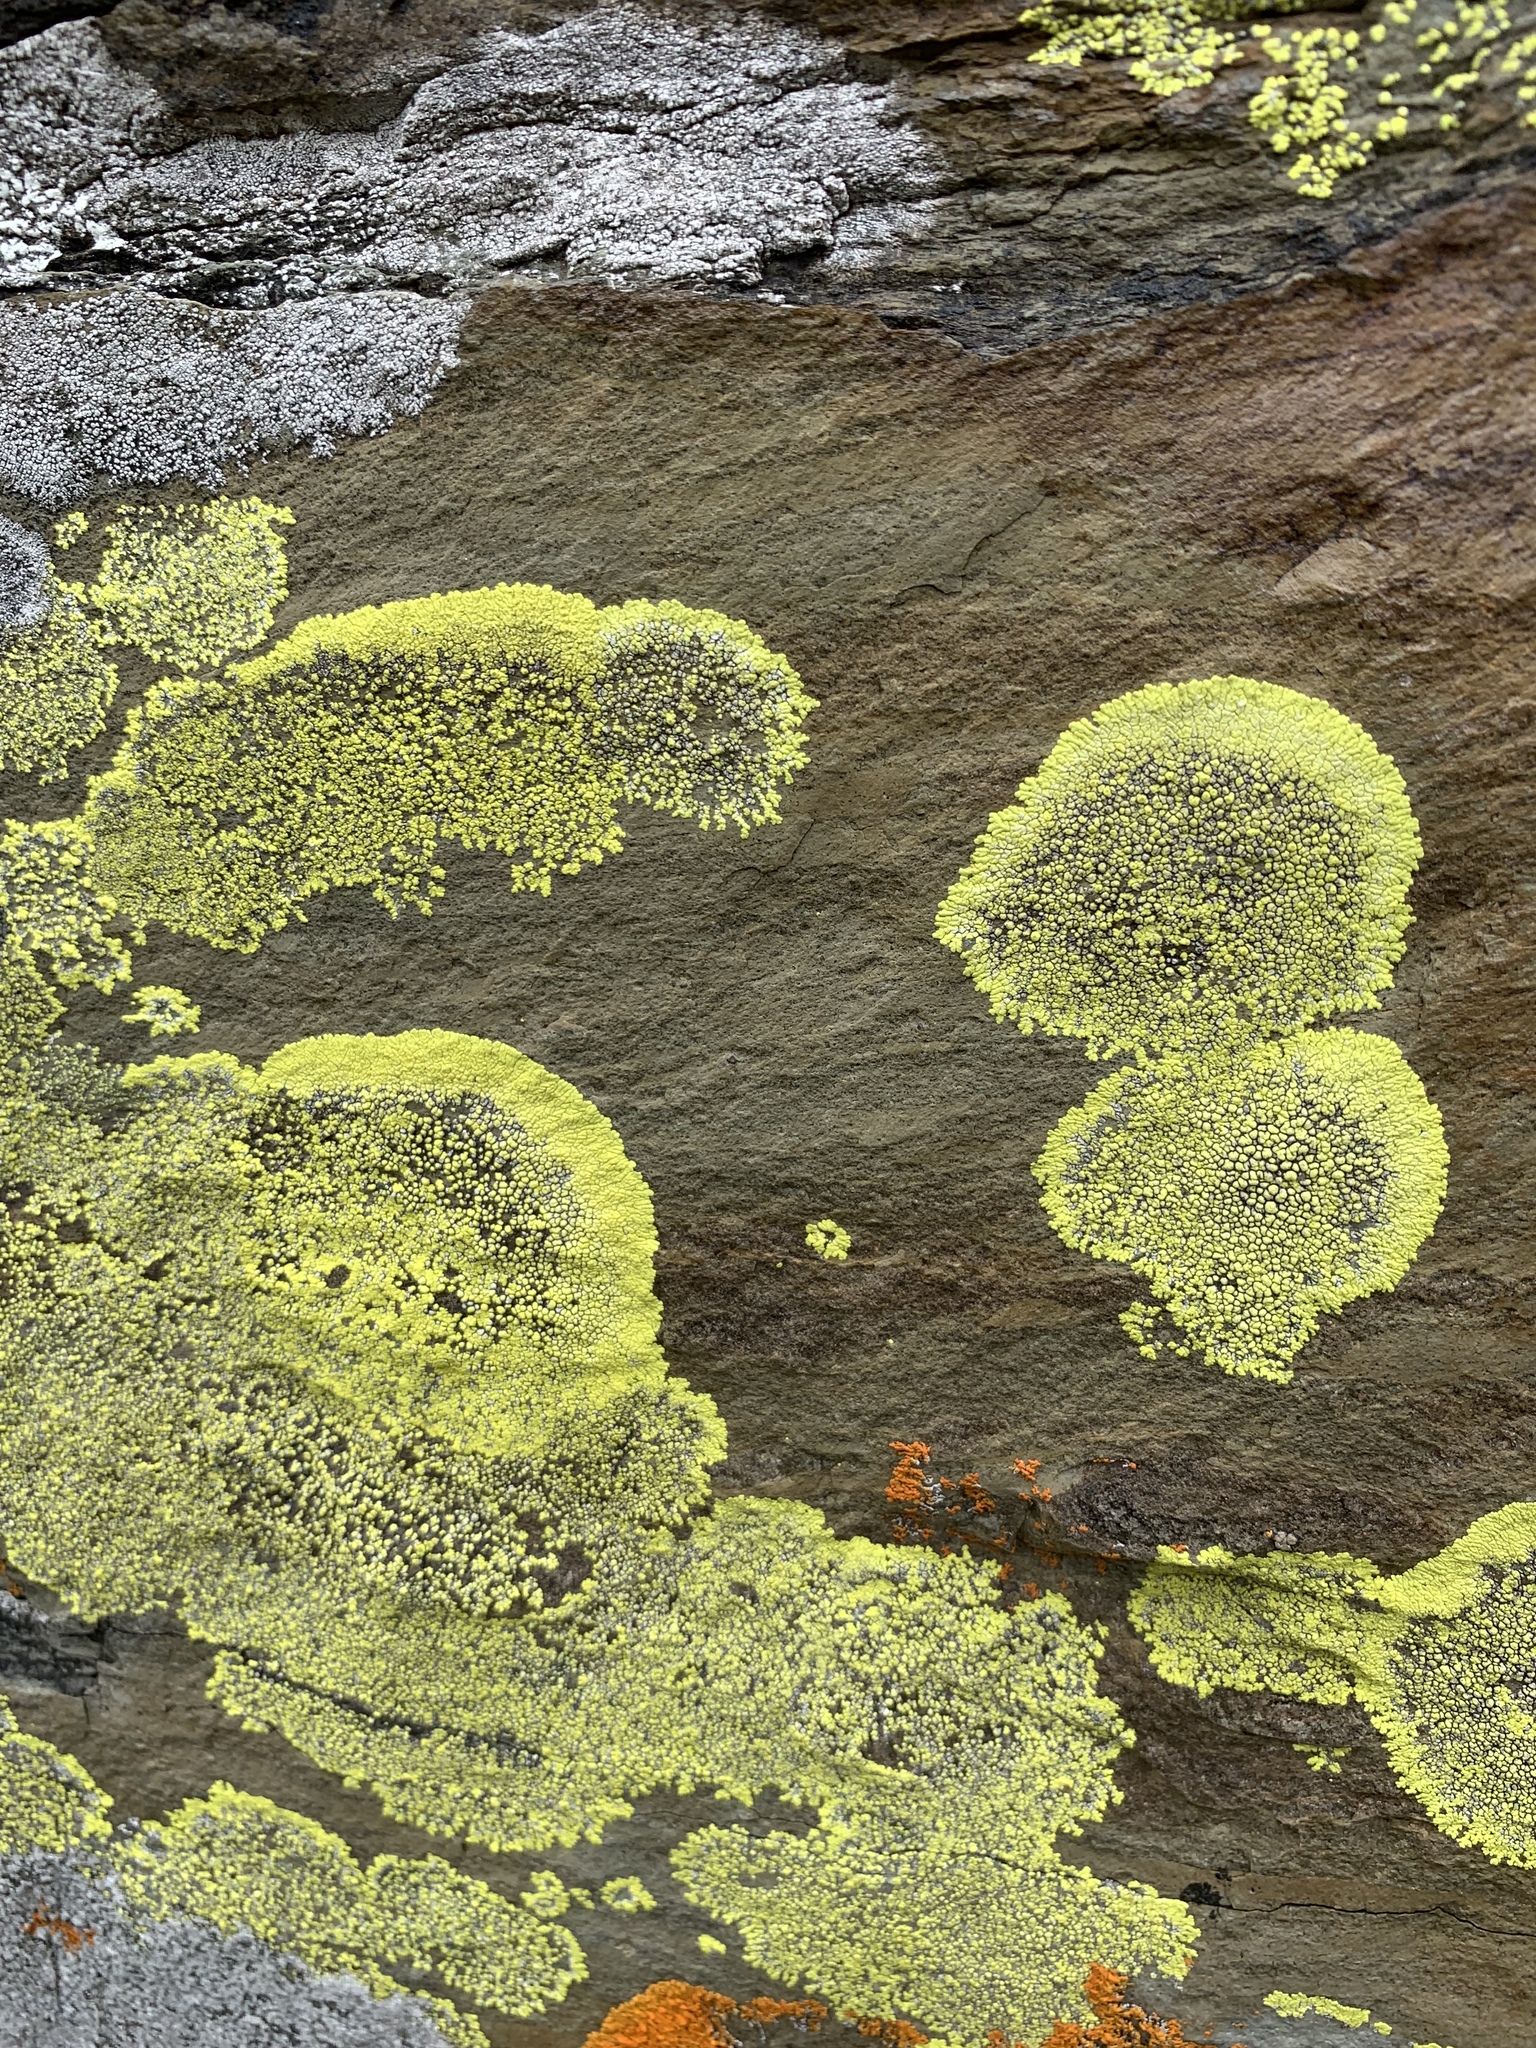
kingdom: Fungi
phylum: Ascomycota
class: Lecanoromycetes
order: Acarosporales
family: Acarosporaceae
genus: Pleopsidium
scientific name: Pleopsidium oxytonum
